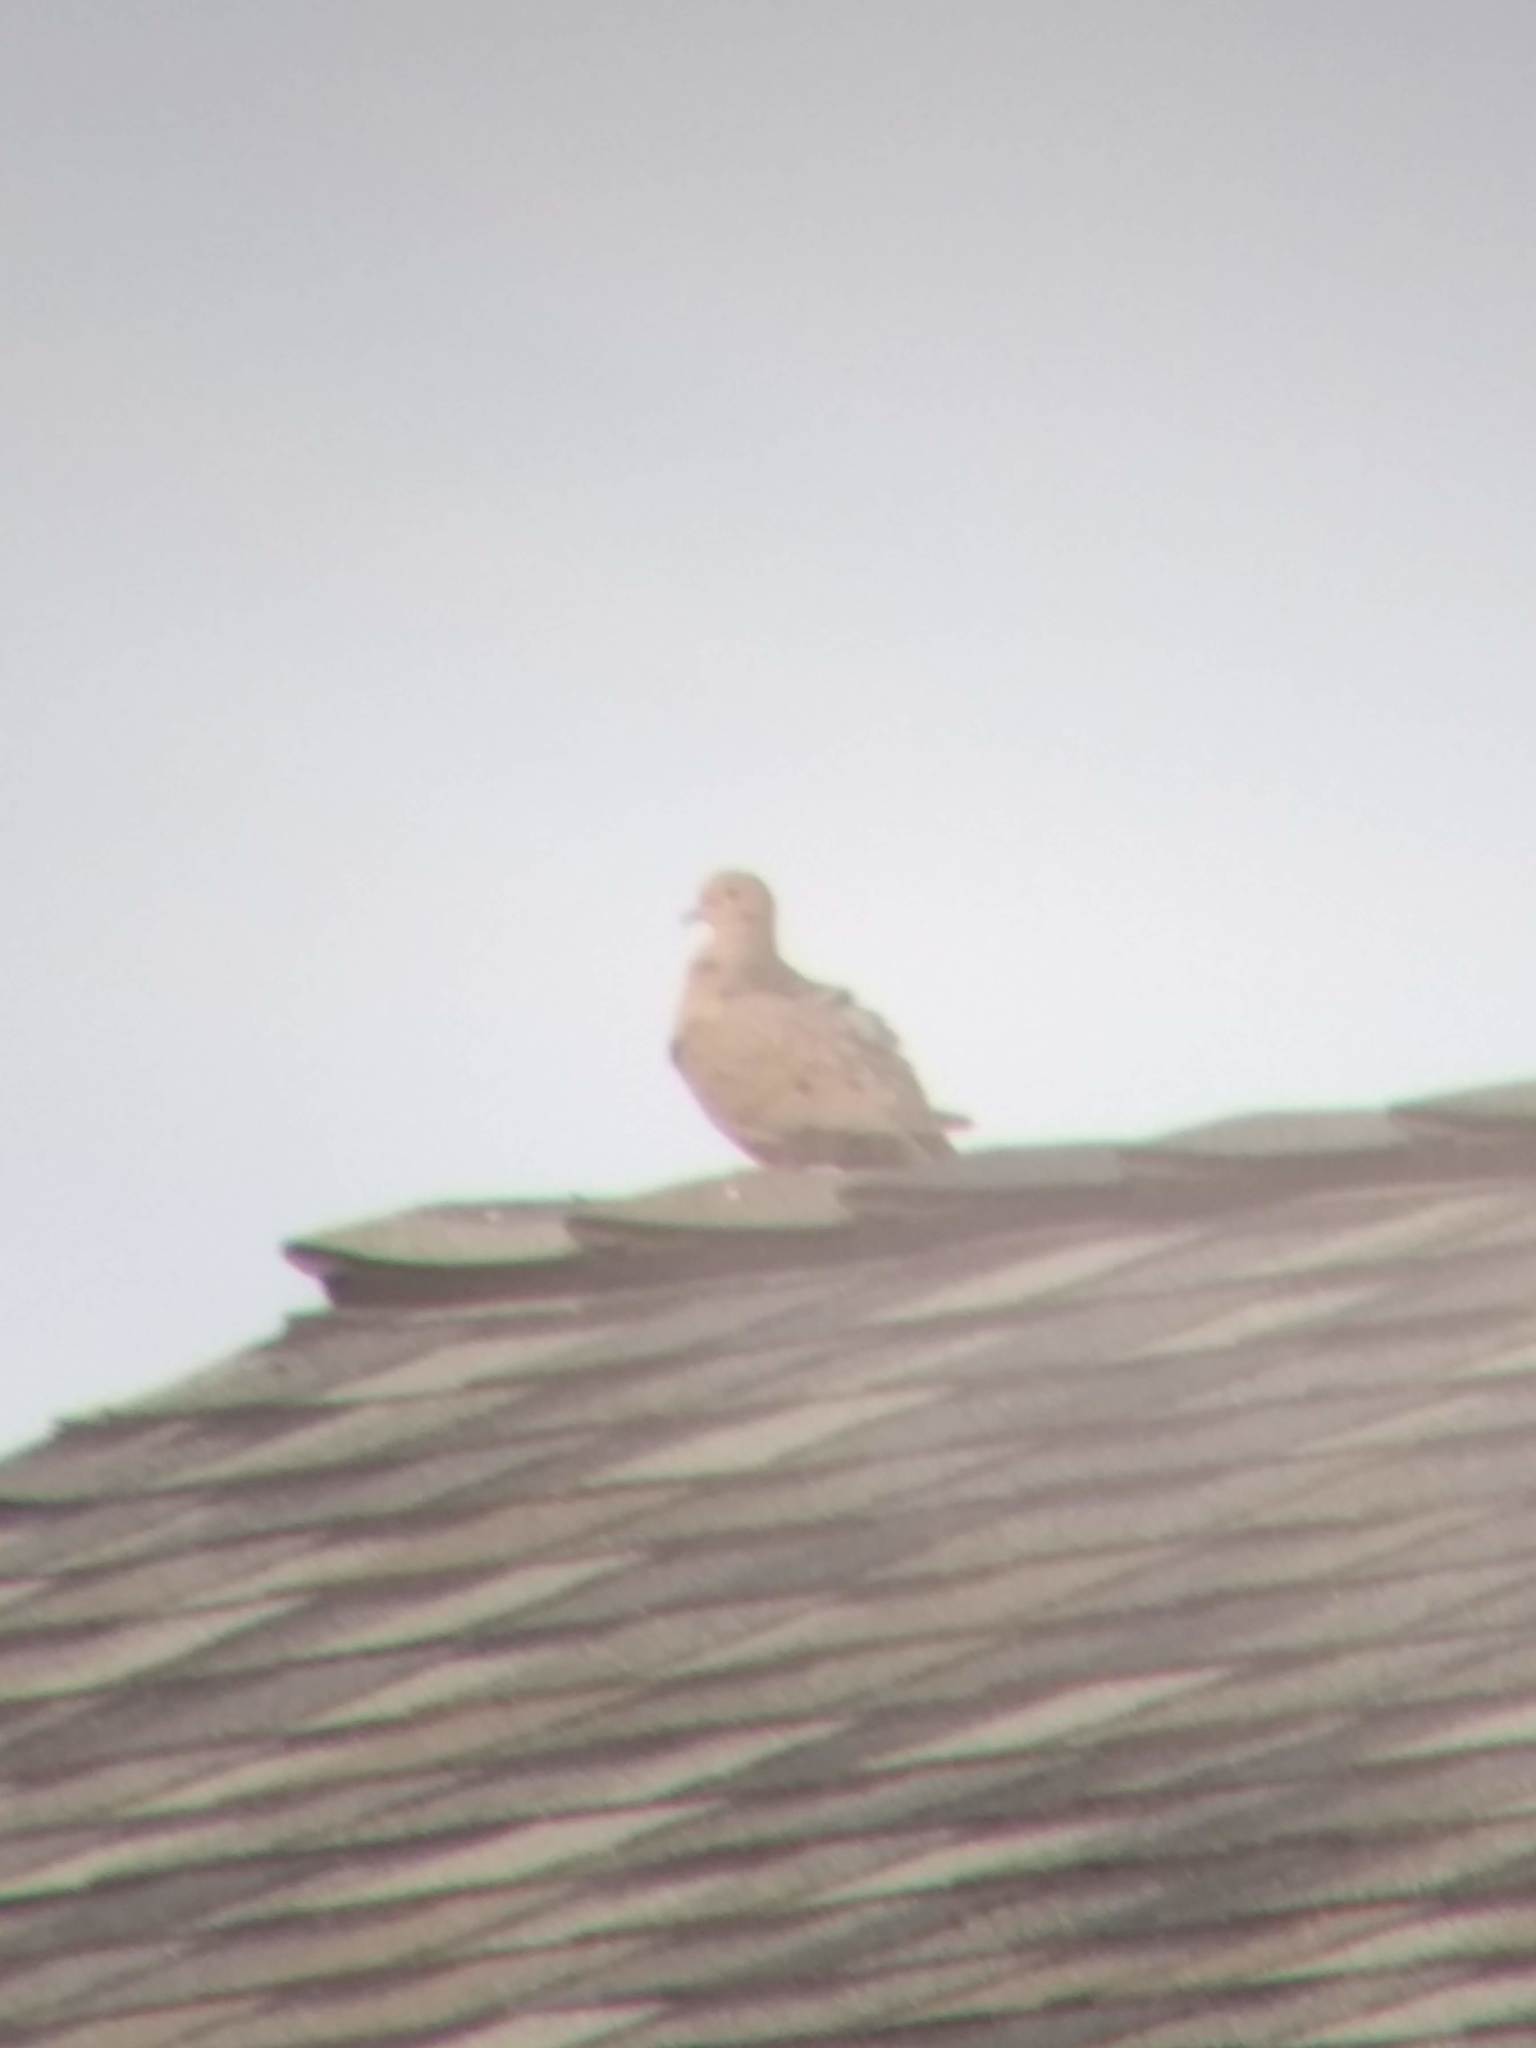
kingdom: Animalia
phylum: Chordata
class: Aves
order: Columbiformes
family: Columbidae
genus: Zenaida
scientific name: Zenaida macroura
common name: Mourning dove
